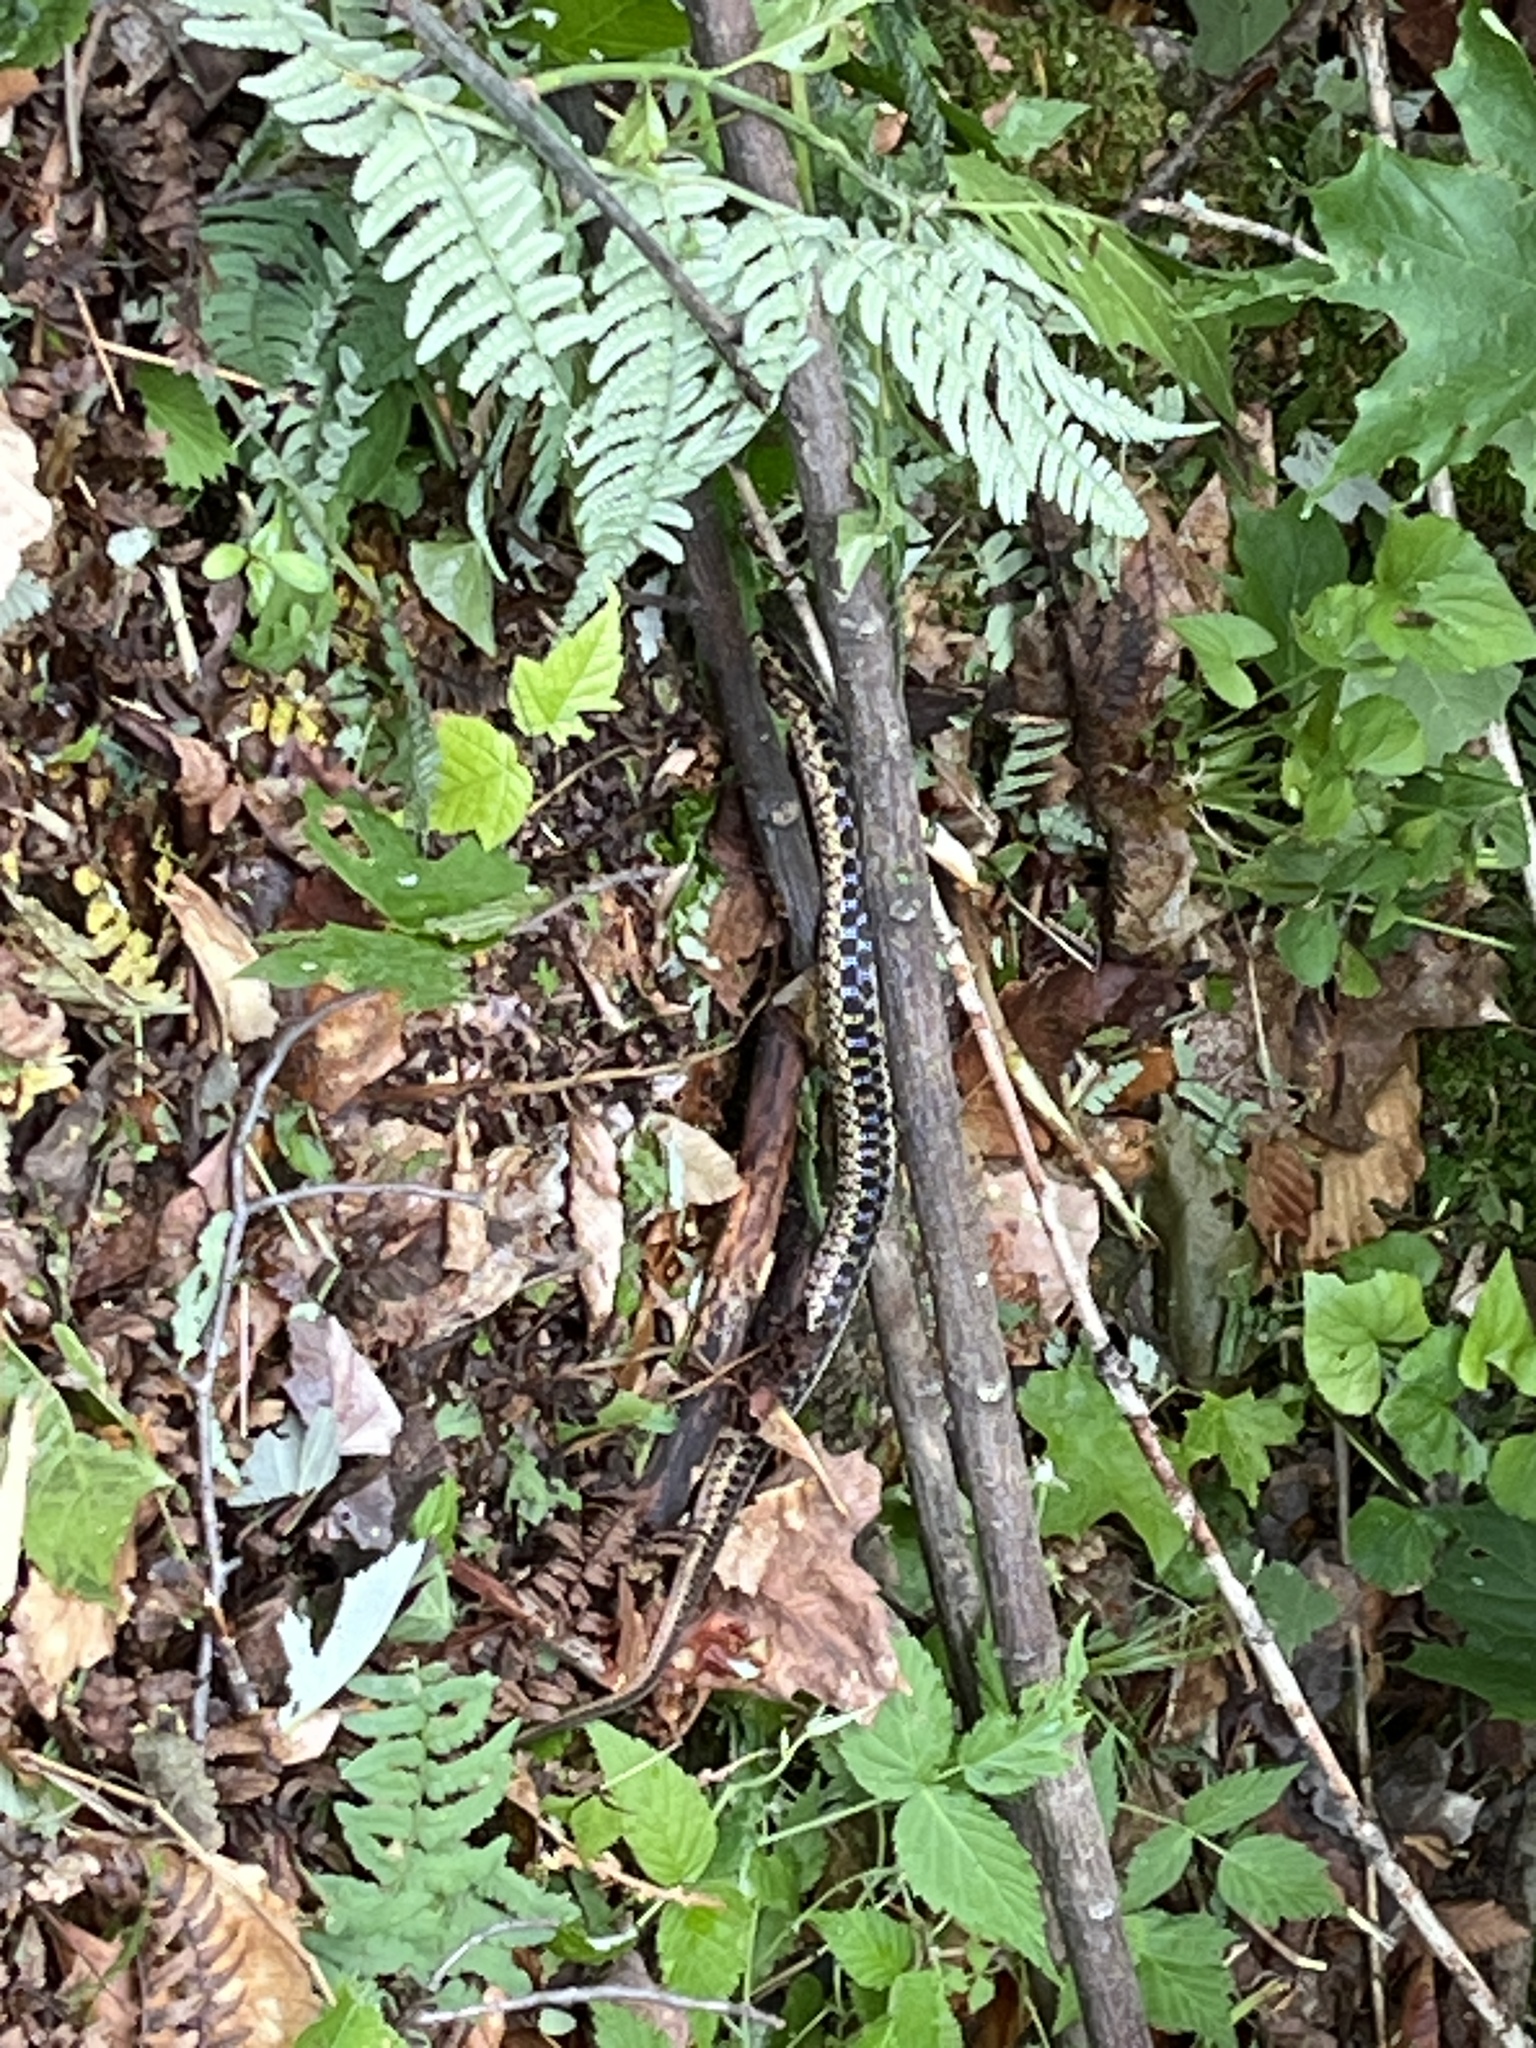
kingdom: Animalia
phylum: Chordata
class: Squamata
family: Colubridae
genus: Thamnophis
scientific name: Thamnophis sirtalis
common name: Common garter snake
